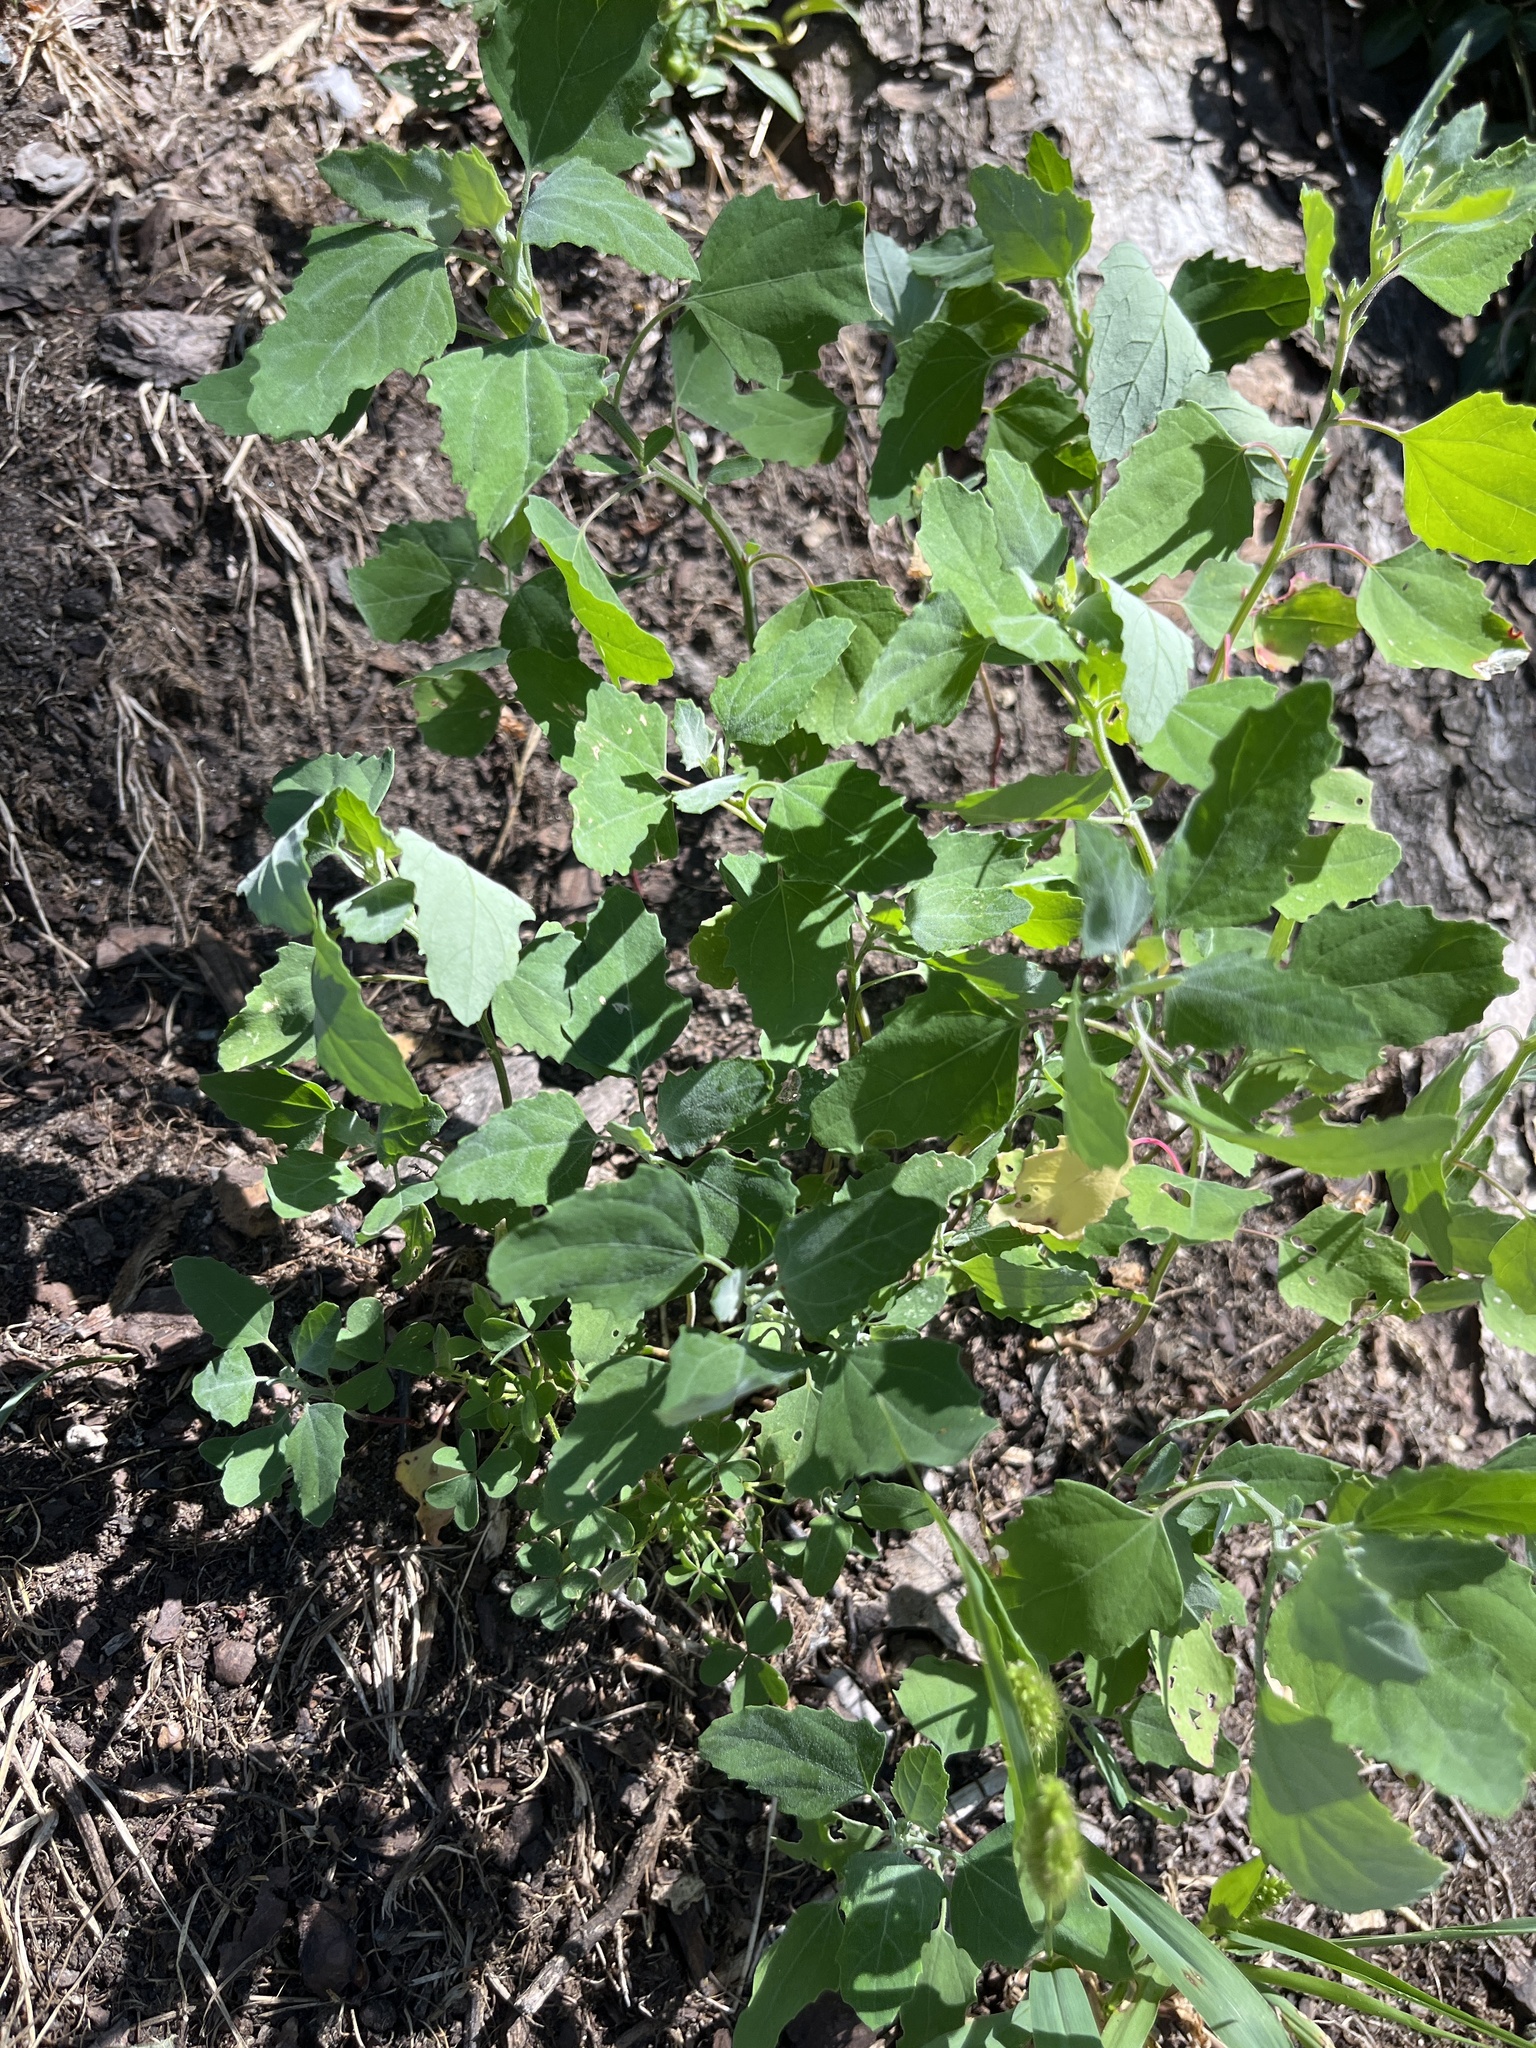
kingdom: Plantae
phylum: Tracheophyta
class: Magnoliopsida
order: Caryophyllales
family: Amaranthaceae
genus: Chenopodium
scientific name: Chenopodium album
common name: Fat-hen
